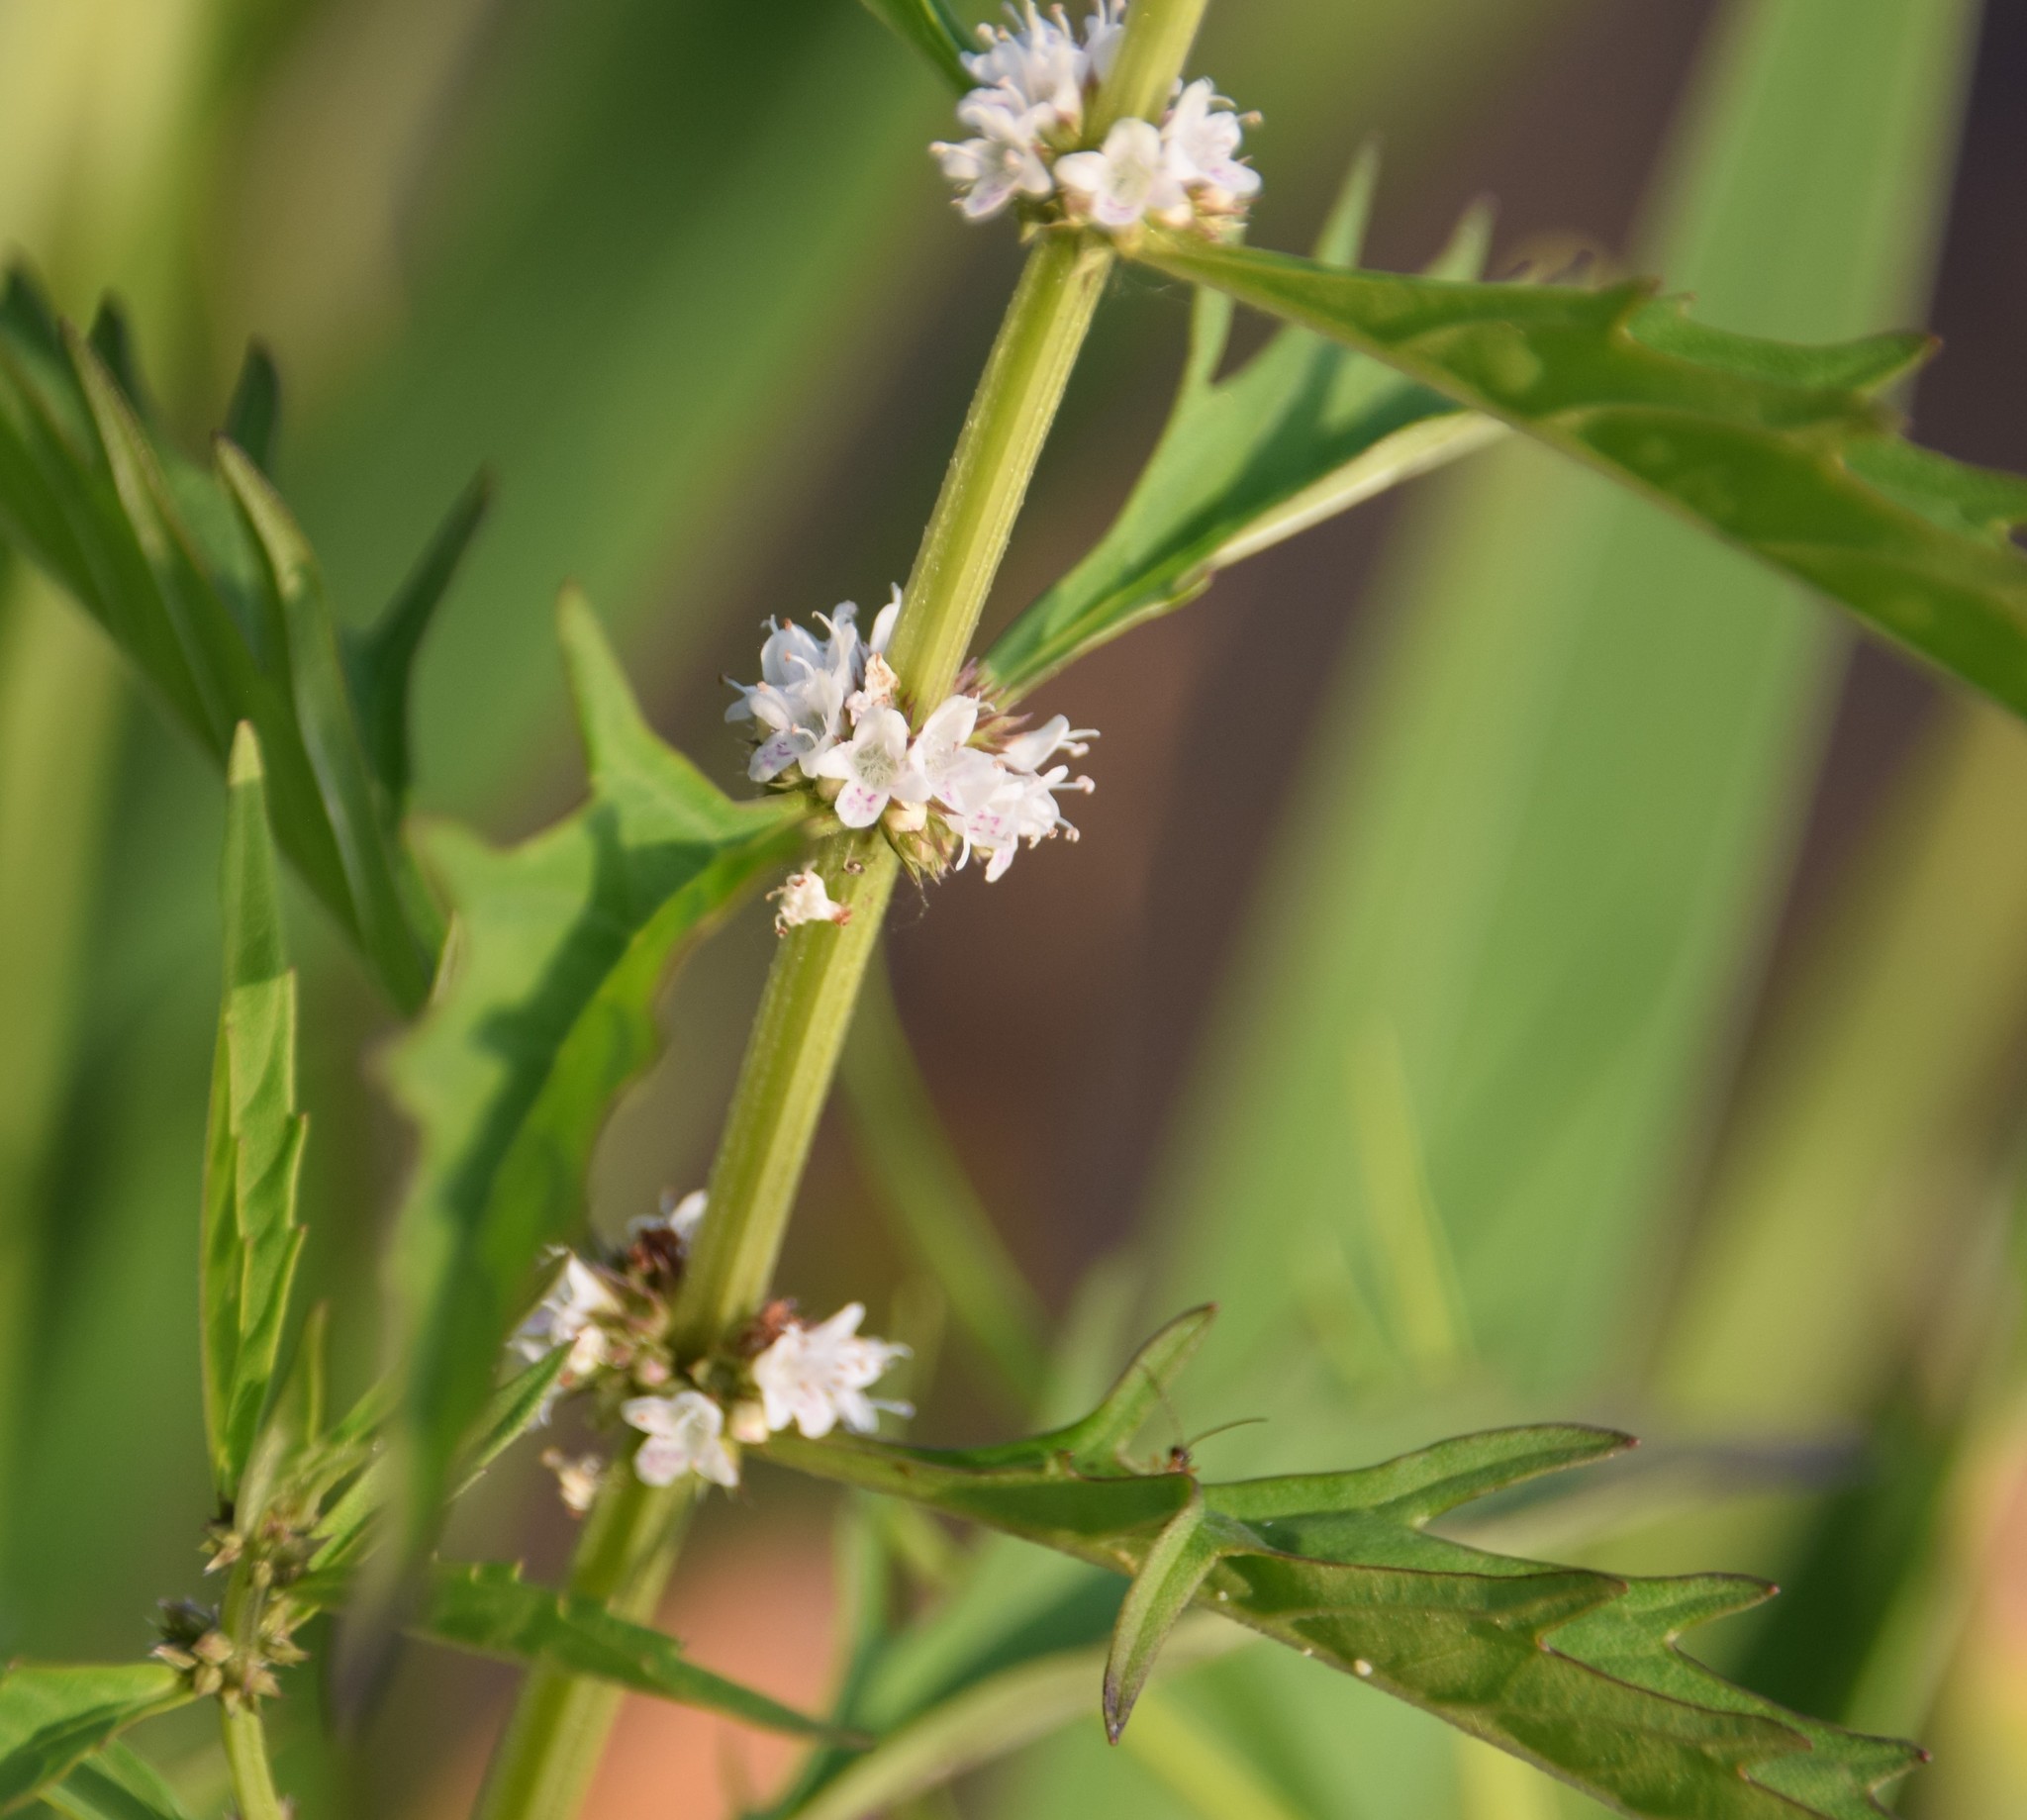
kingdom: Plantae
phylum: Tracheophyta
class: Magnoliopsida
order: Lamiales
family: Lamiaceae
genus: Lycopus
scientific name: Lycopus americanus
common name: American bugleweed
